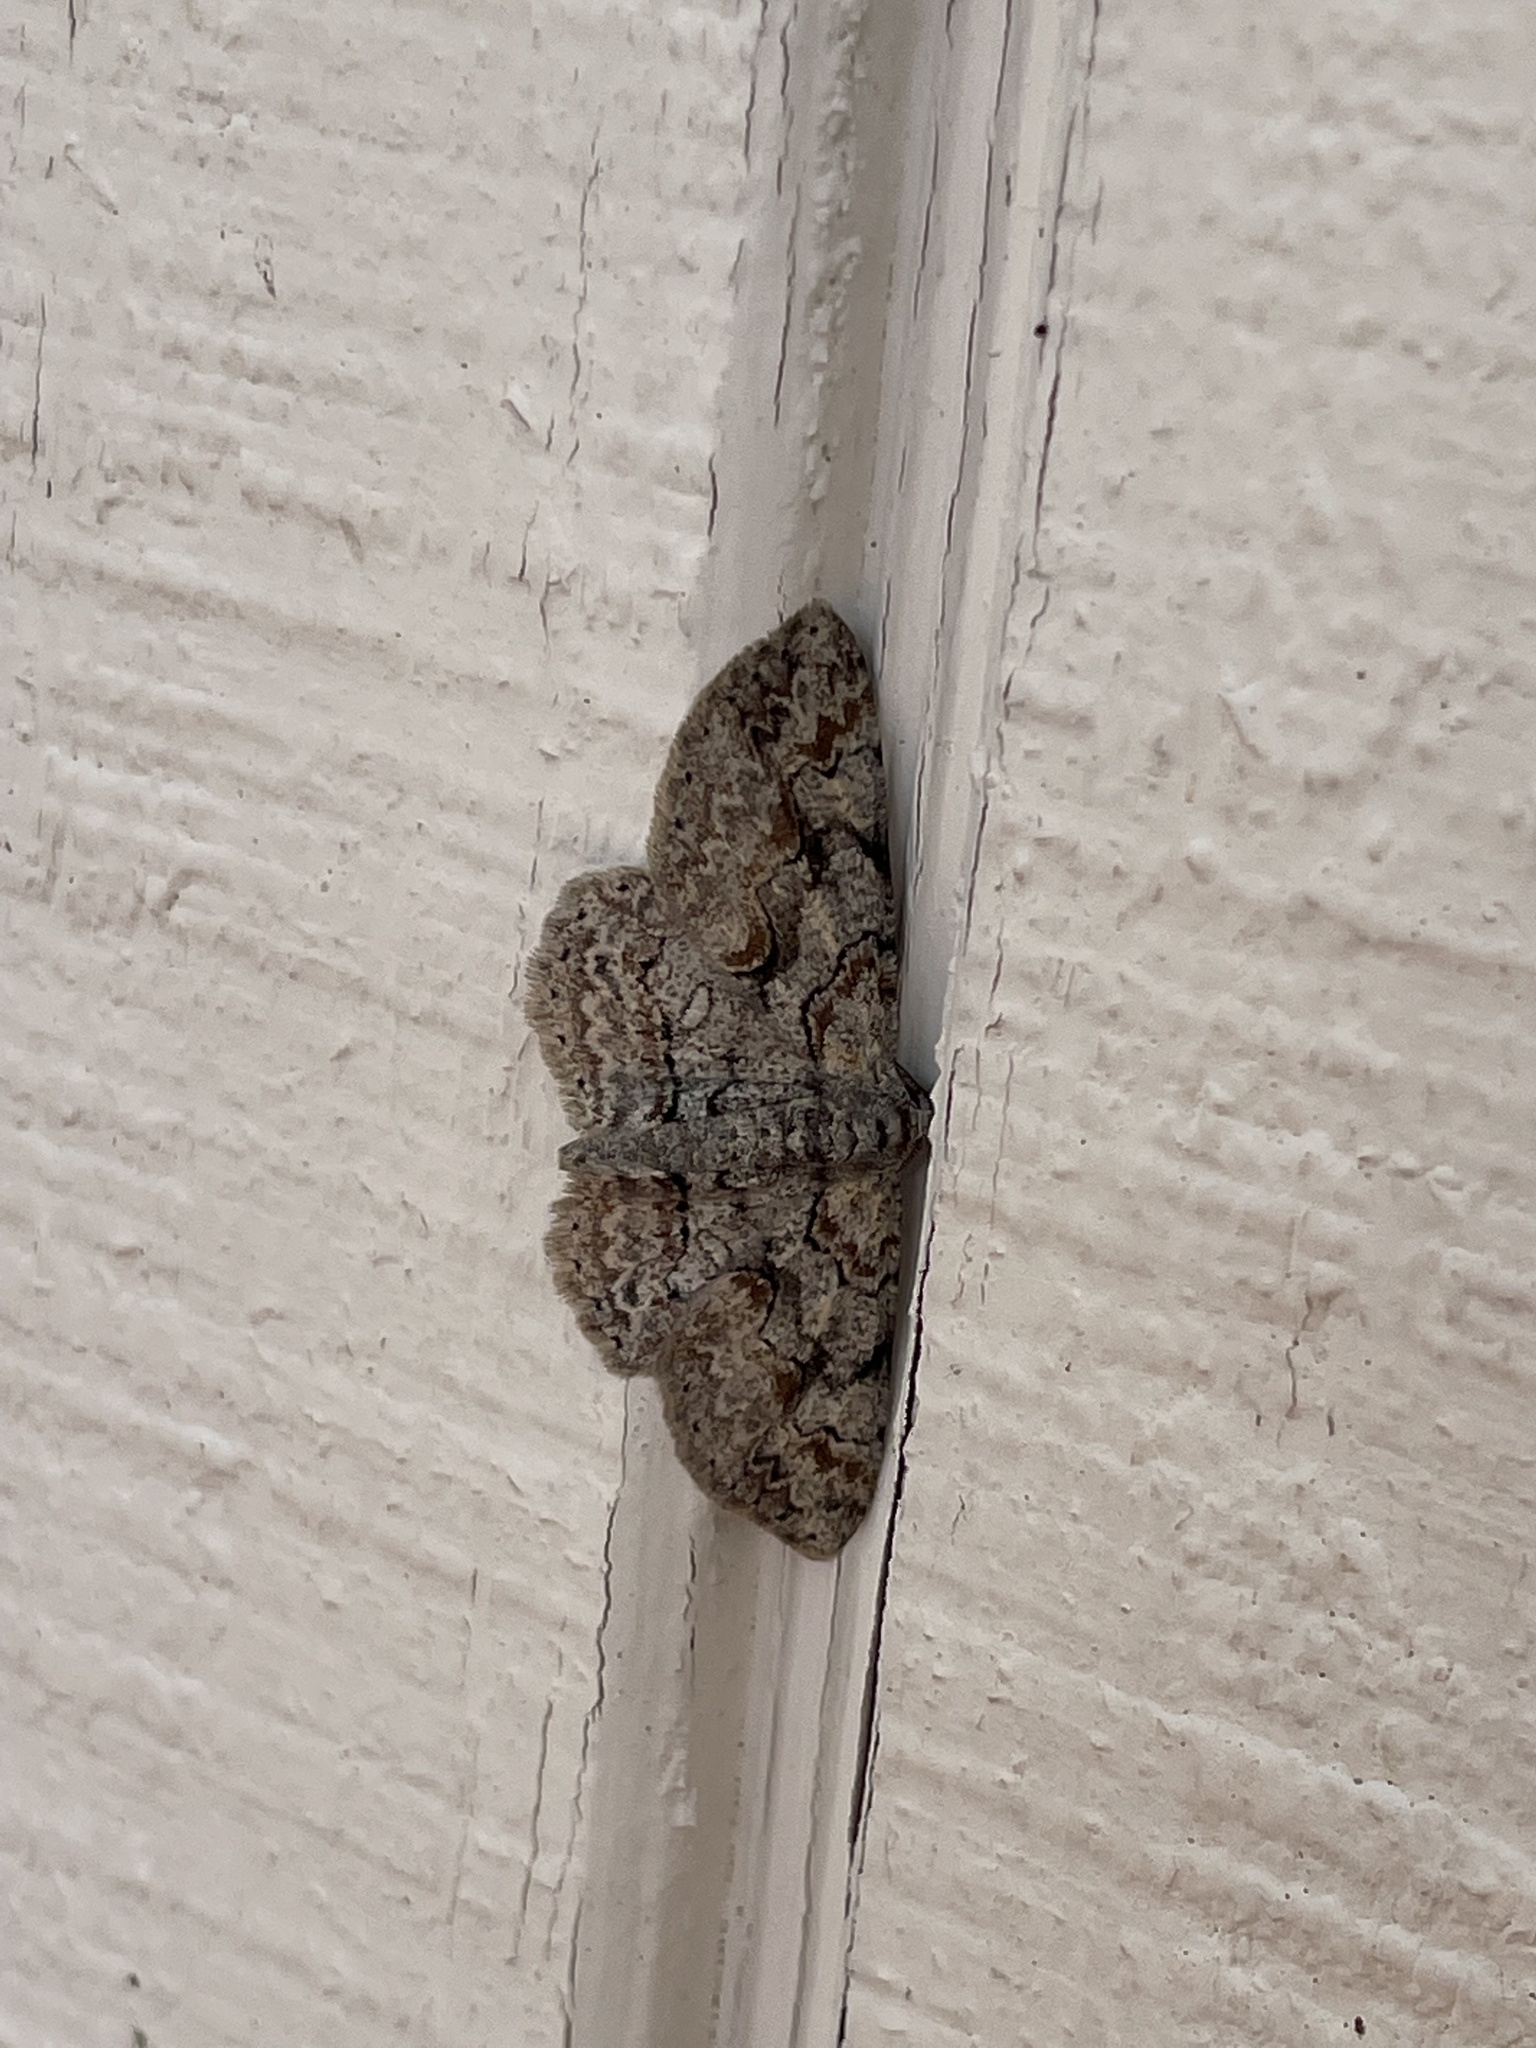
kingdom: Animalia
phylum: Arthropoda
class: Insecta
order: Lepidoptera
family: Geometridae
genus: Iridopsis
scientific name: Iridopsis defectaria
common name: Brown-shaded gray
